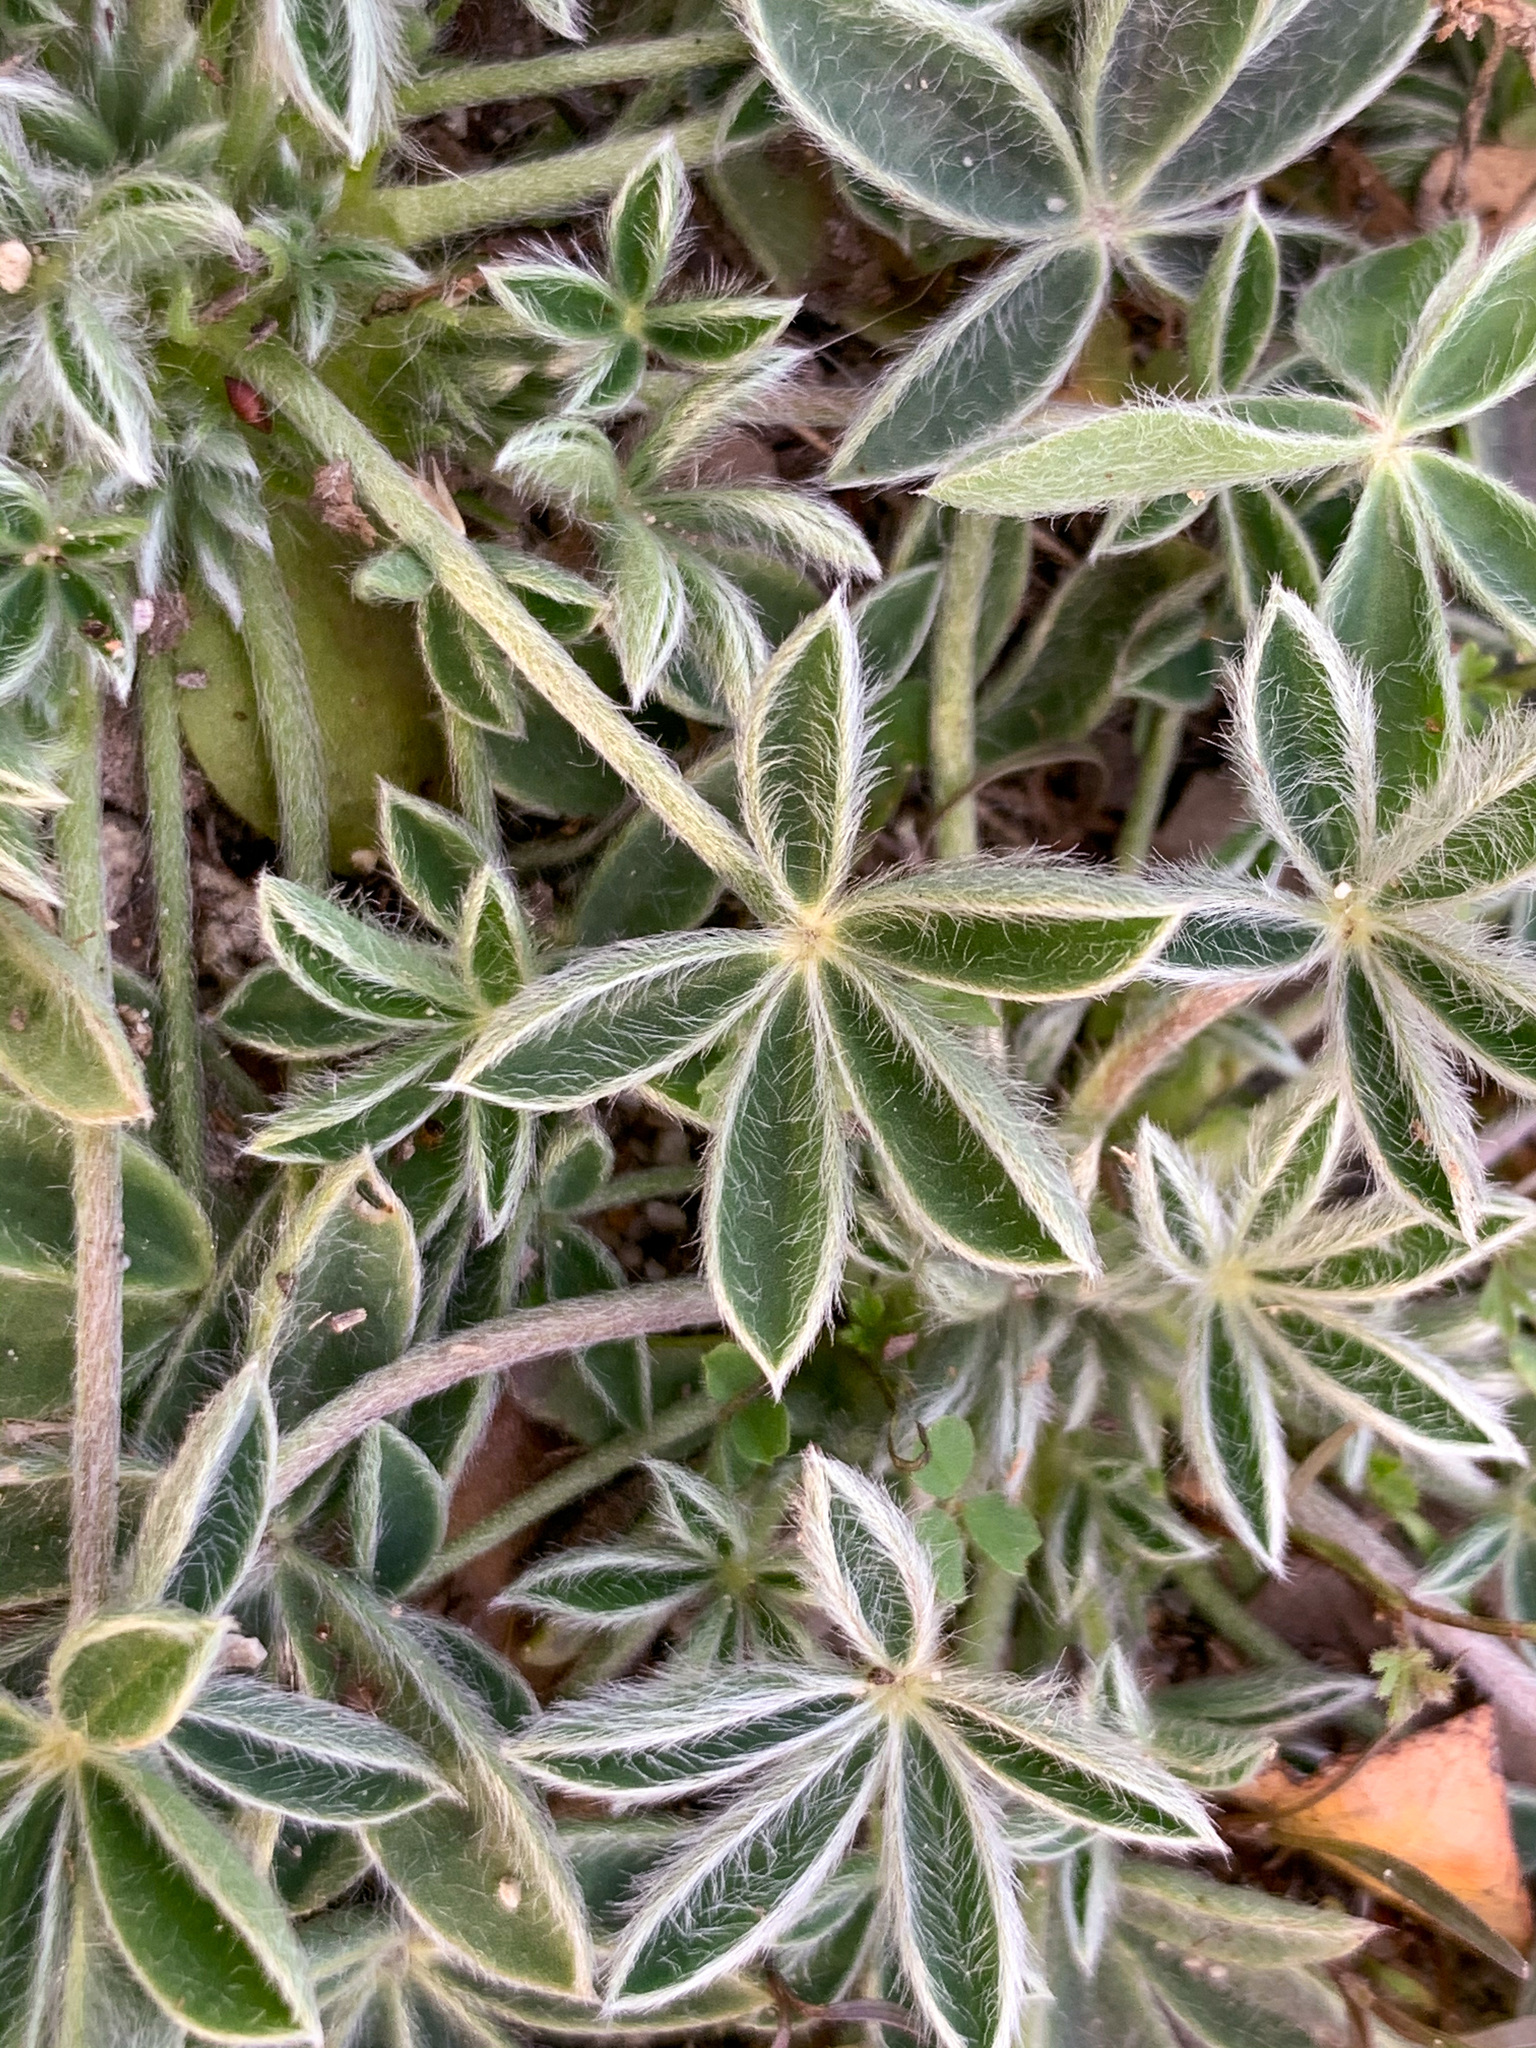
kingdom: Plantae
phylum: Tracheophyta
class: Magnoliopsida
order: Fabales
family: Fabaceae
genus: Lupinus
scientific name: Lupinus texensis
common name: Texas bluebonnet
